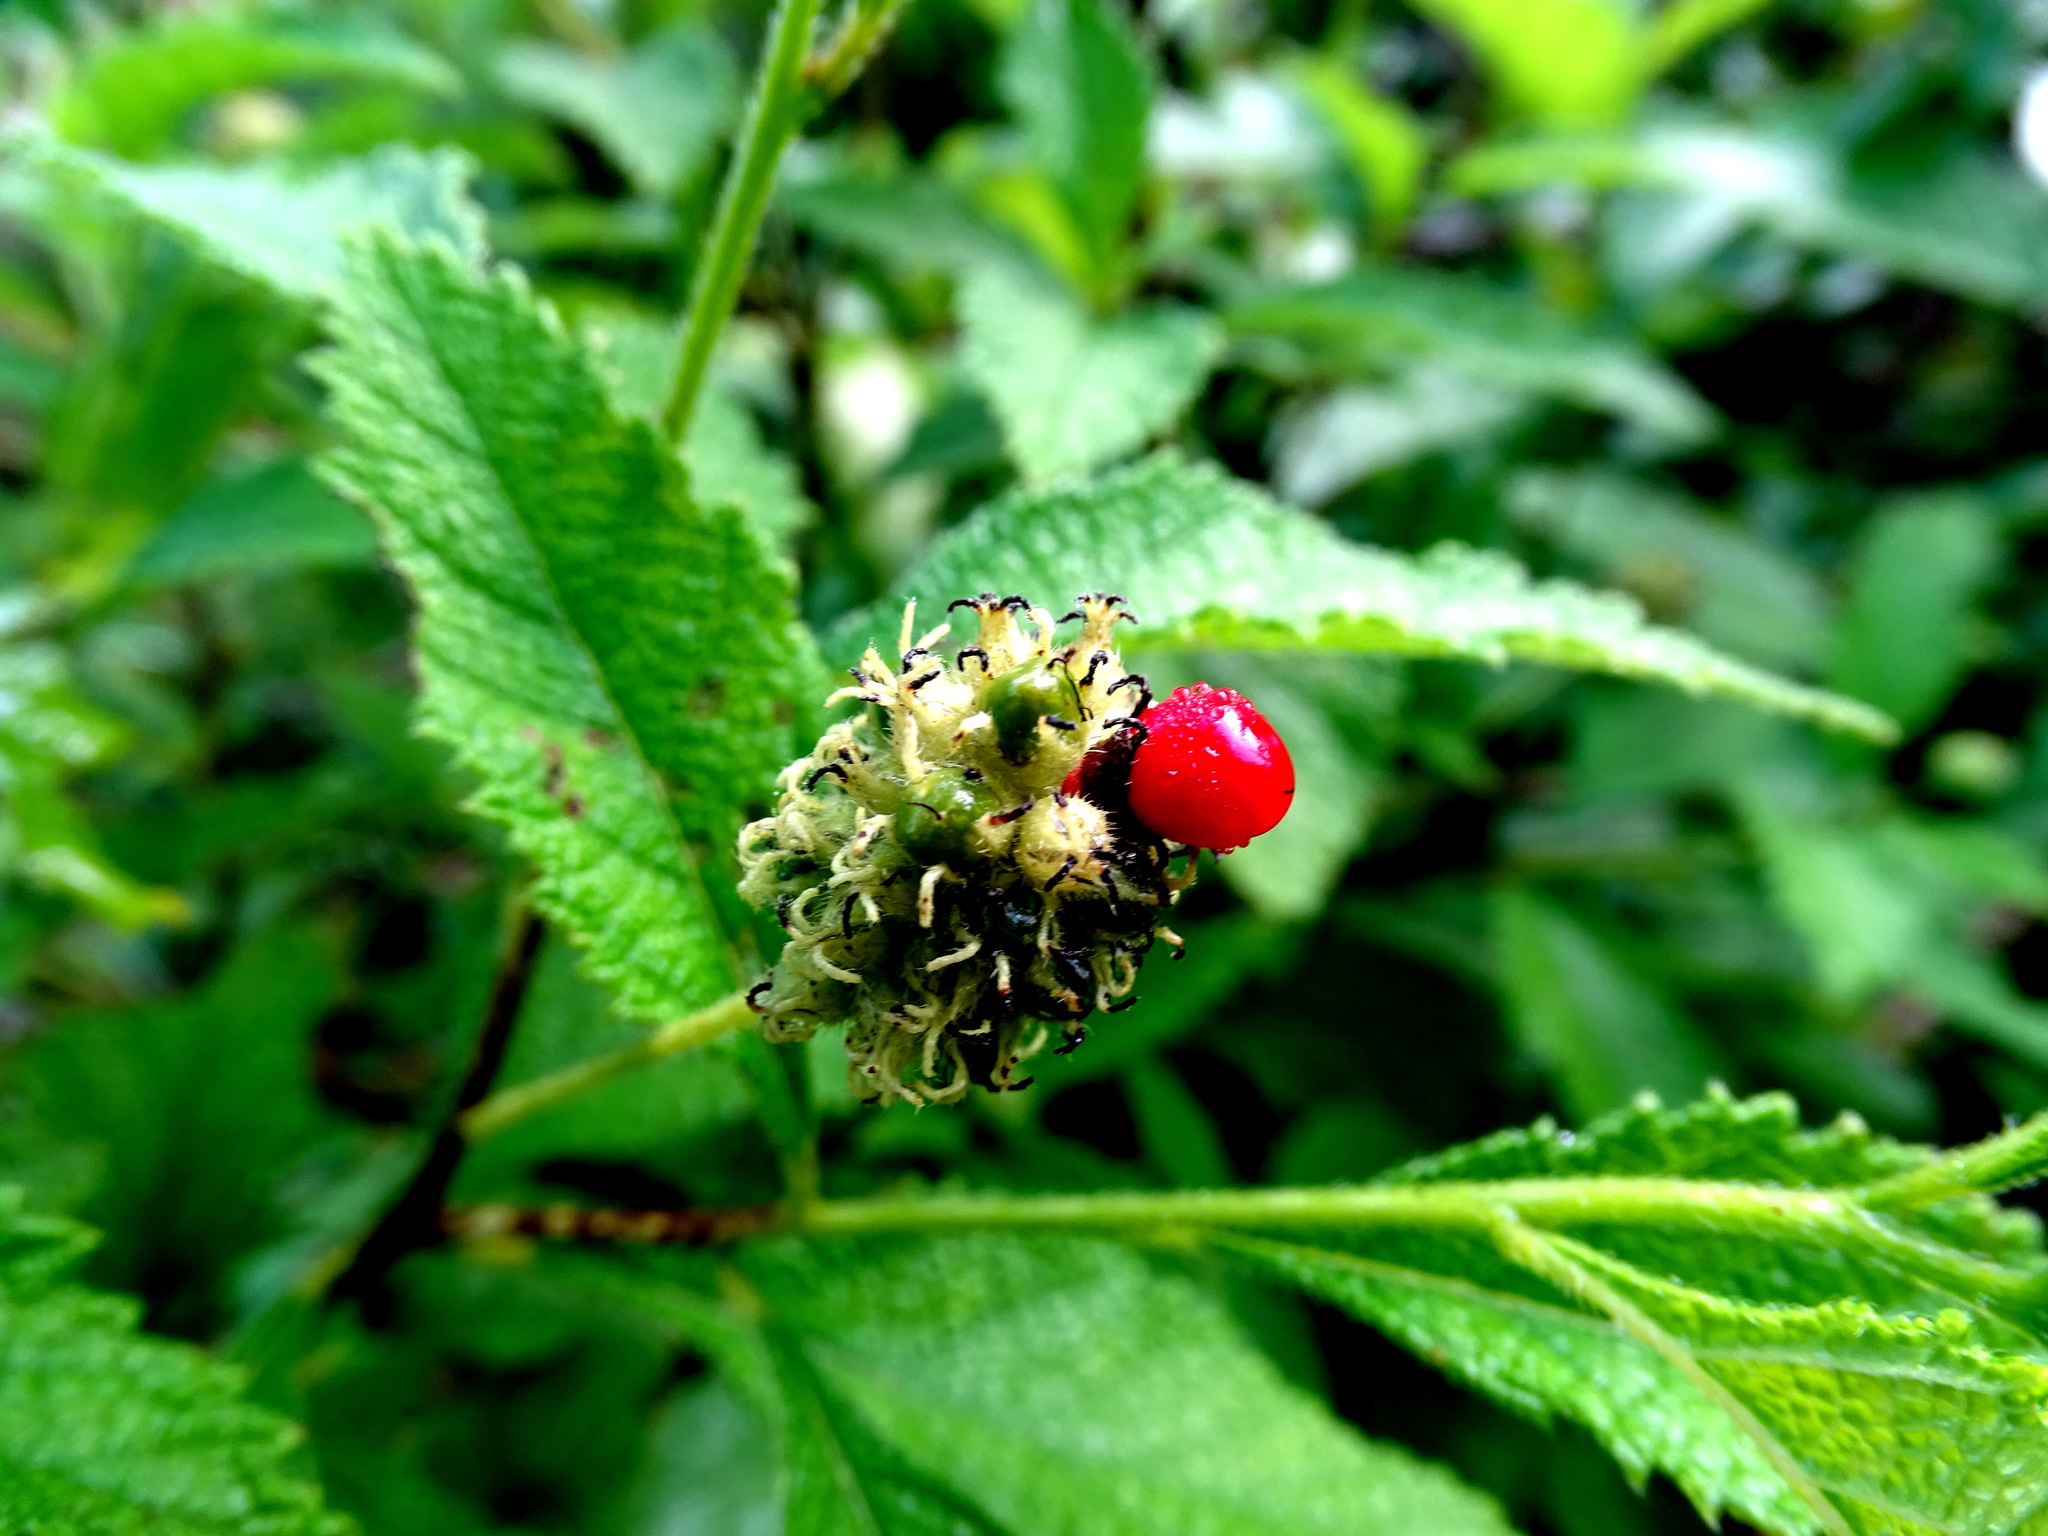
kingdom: Plantae
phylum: Tracheophyta
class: Magnoliopsida
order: Boraginales
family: Cordiaceae
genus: Varronia
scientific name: Varronia bullata
